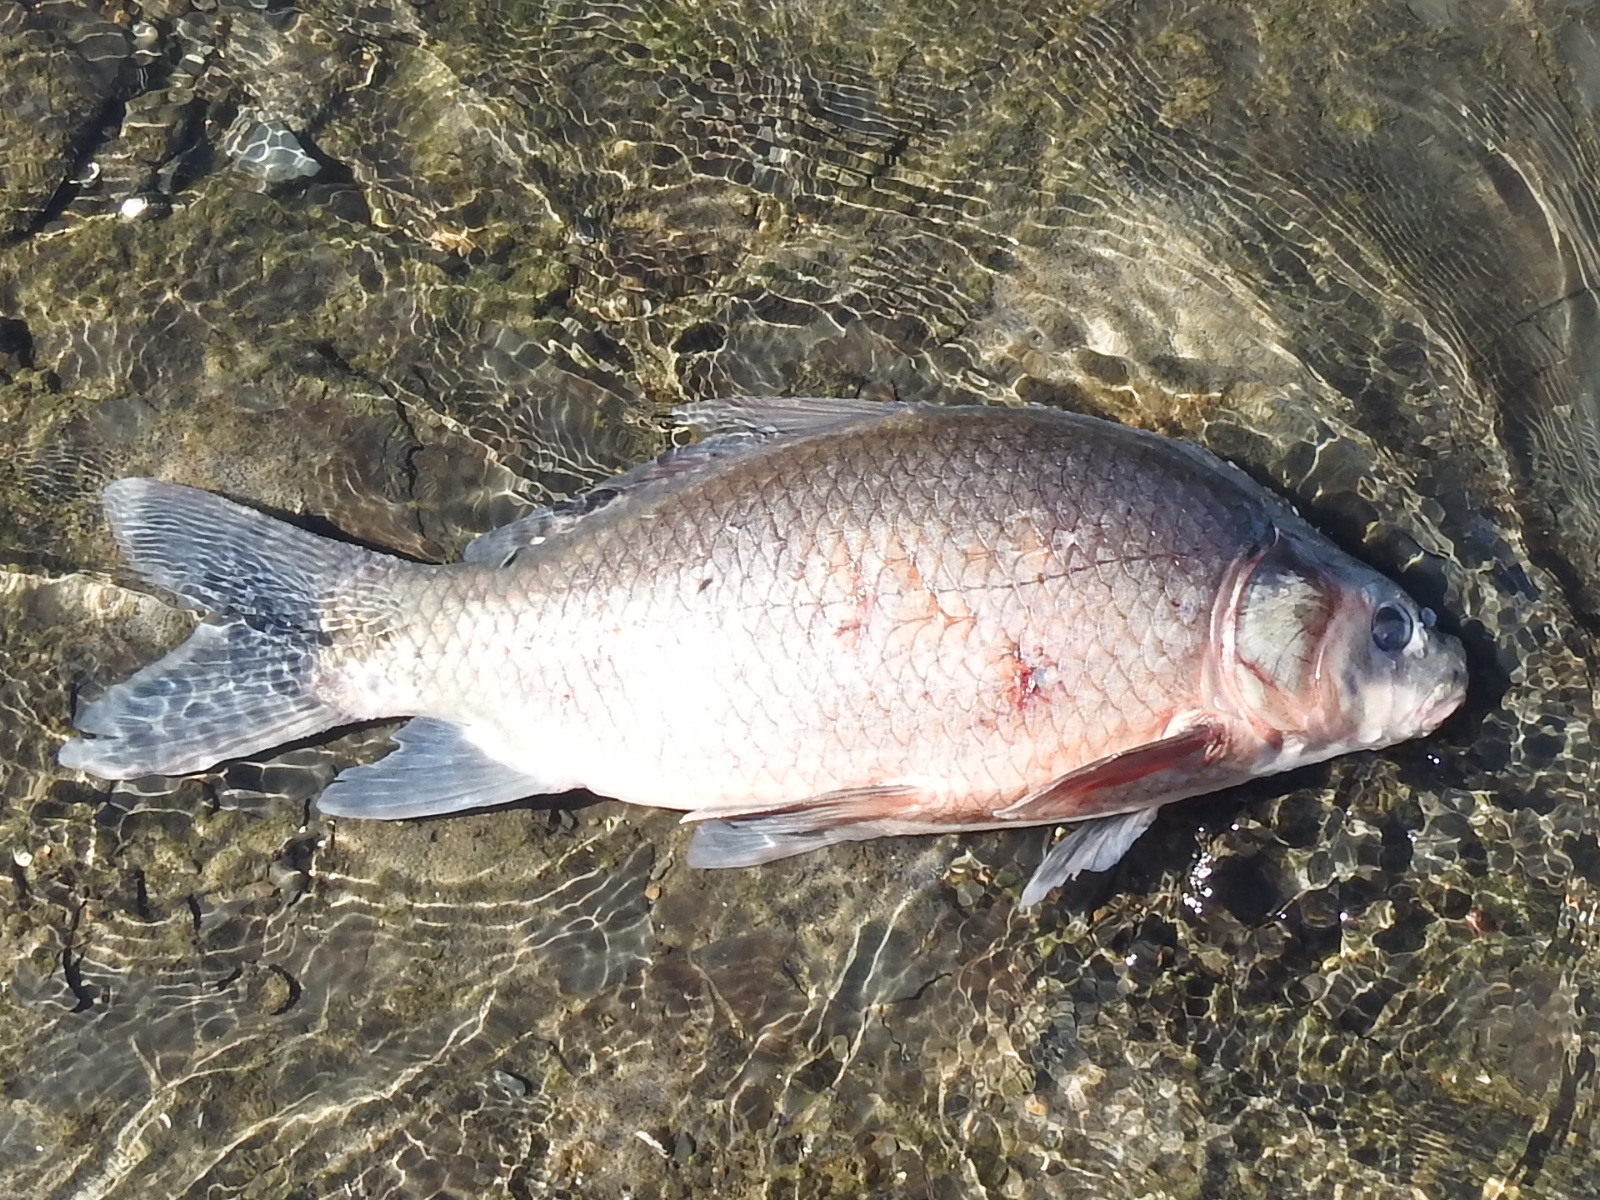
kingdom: Animalia
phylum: Chordata
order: Cypriniformes
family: Catostomidae
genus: Ictiobus
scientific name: Ictiobus bubalus
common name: Smallmouth buffalo
